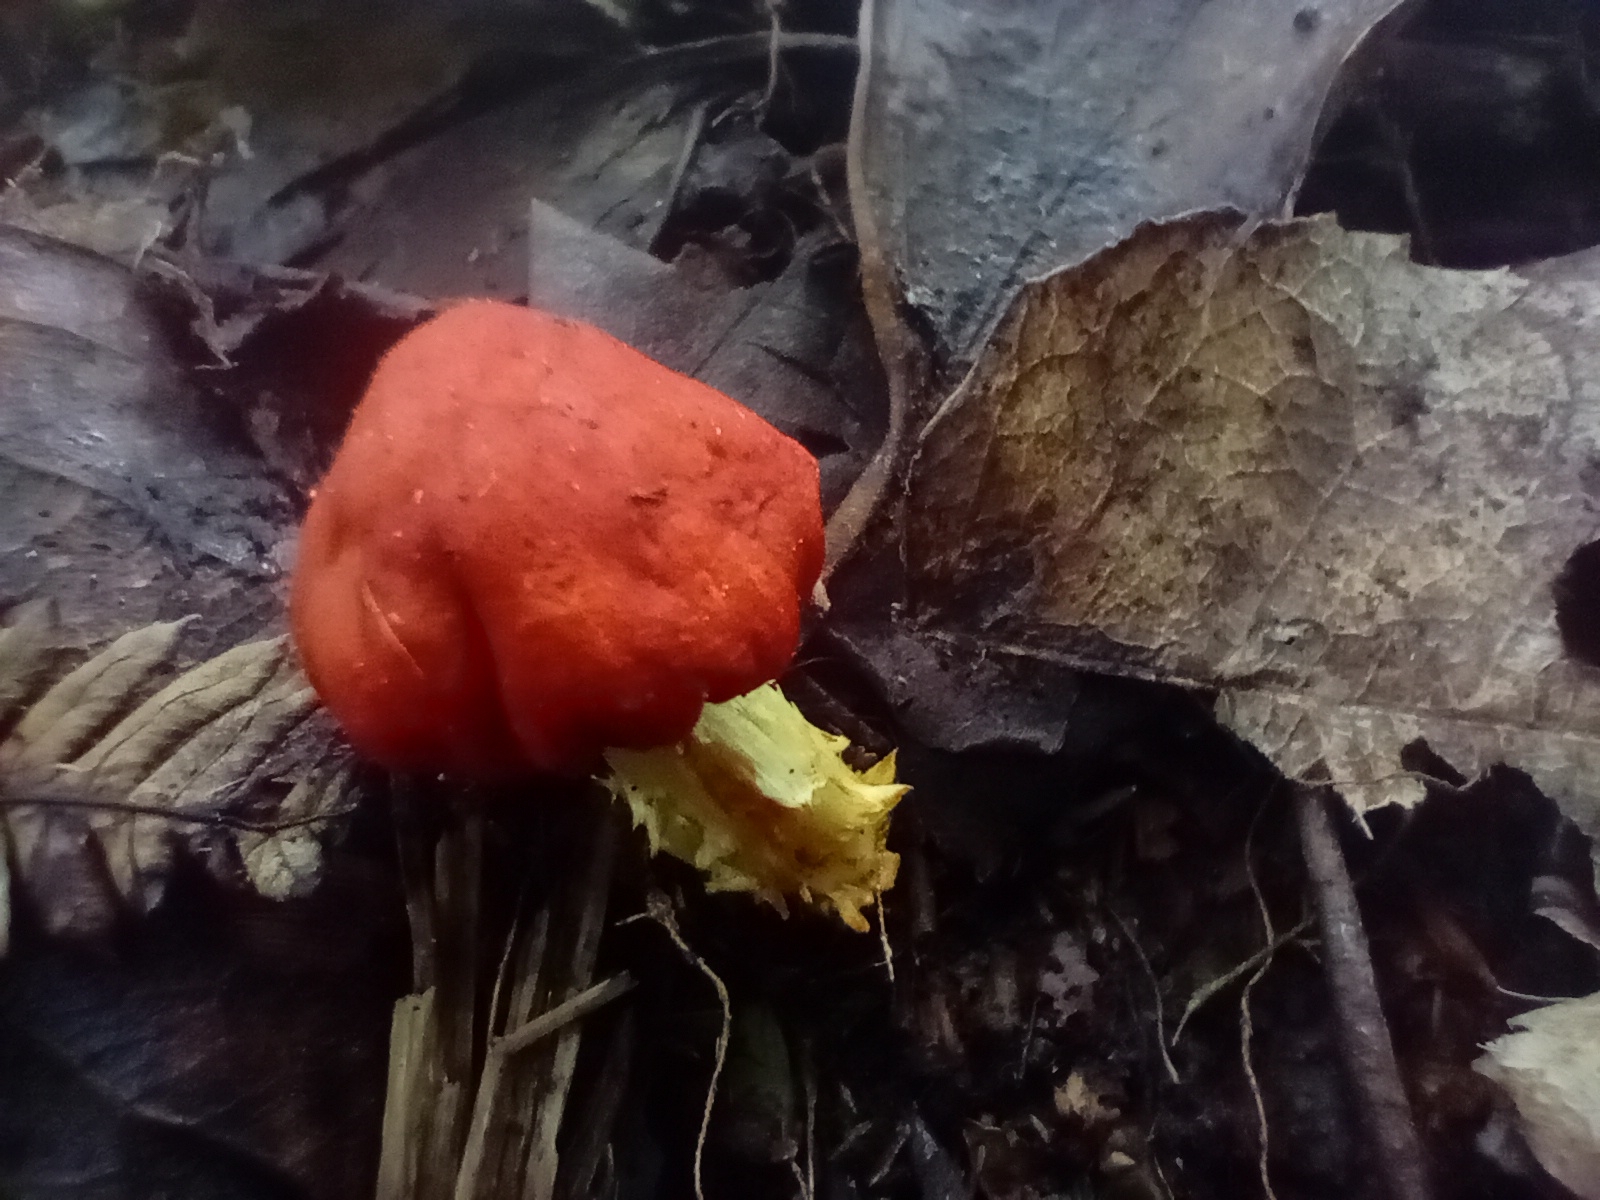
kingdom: Fungi
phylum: Basidiomycota
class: Agaricomycetes
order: Agaricales
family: Strophariaceae
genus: Leratiomyces
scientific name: Leratiomyces erythrocephalus
